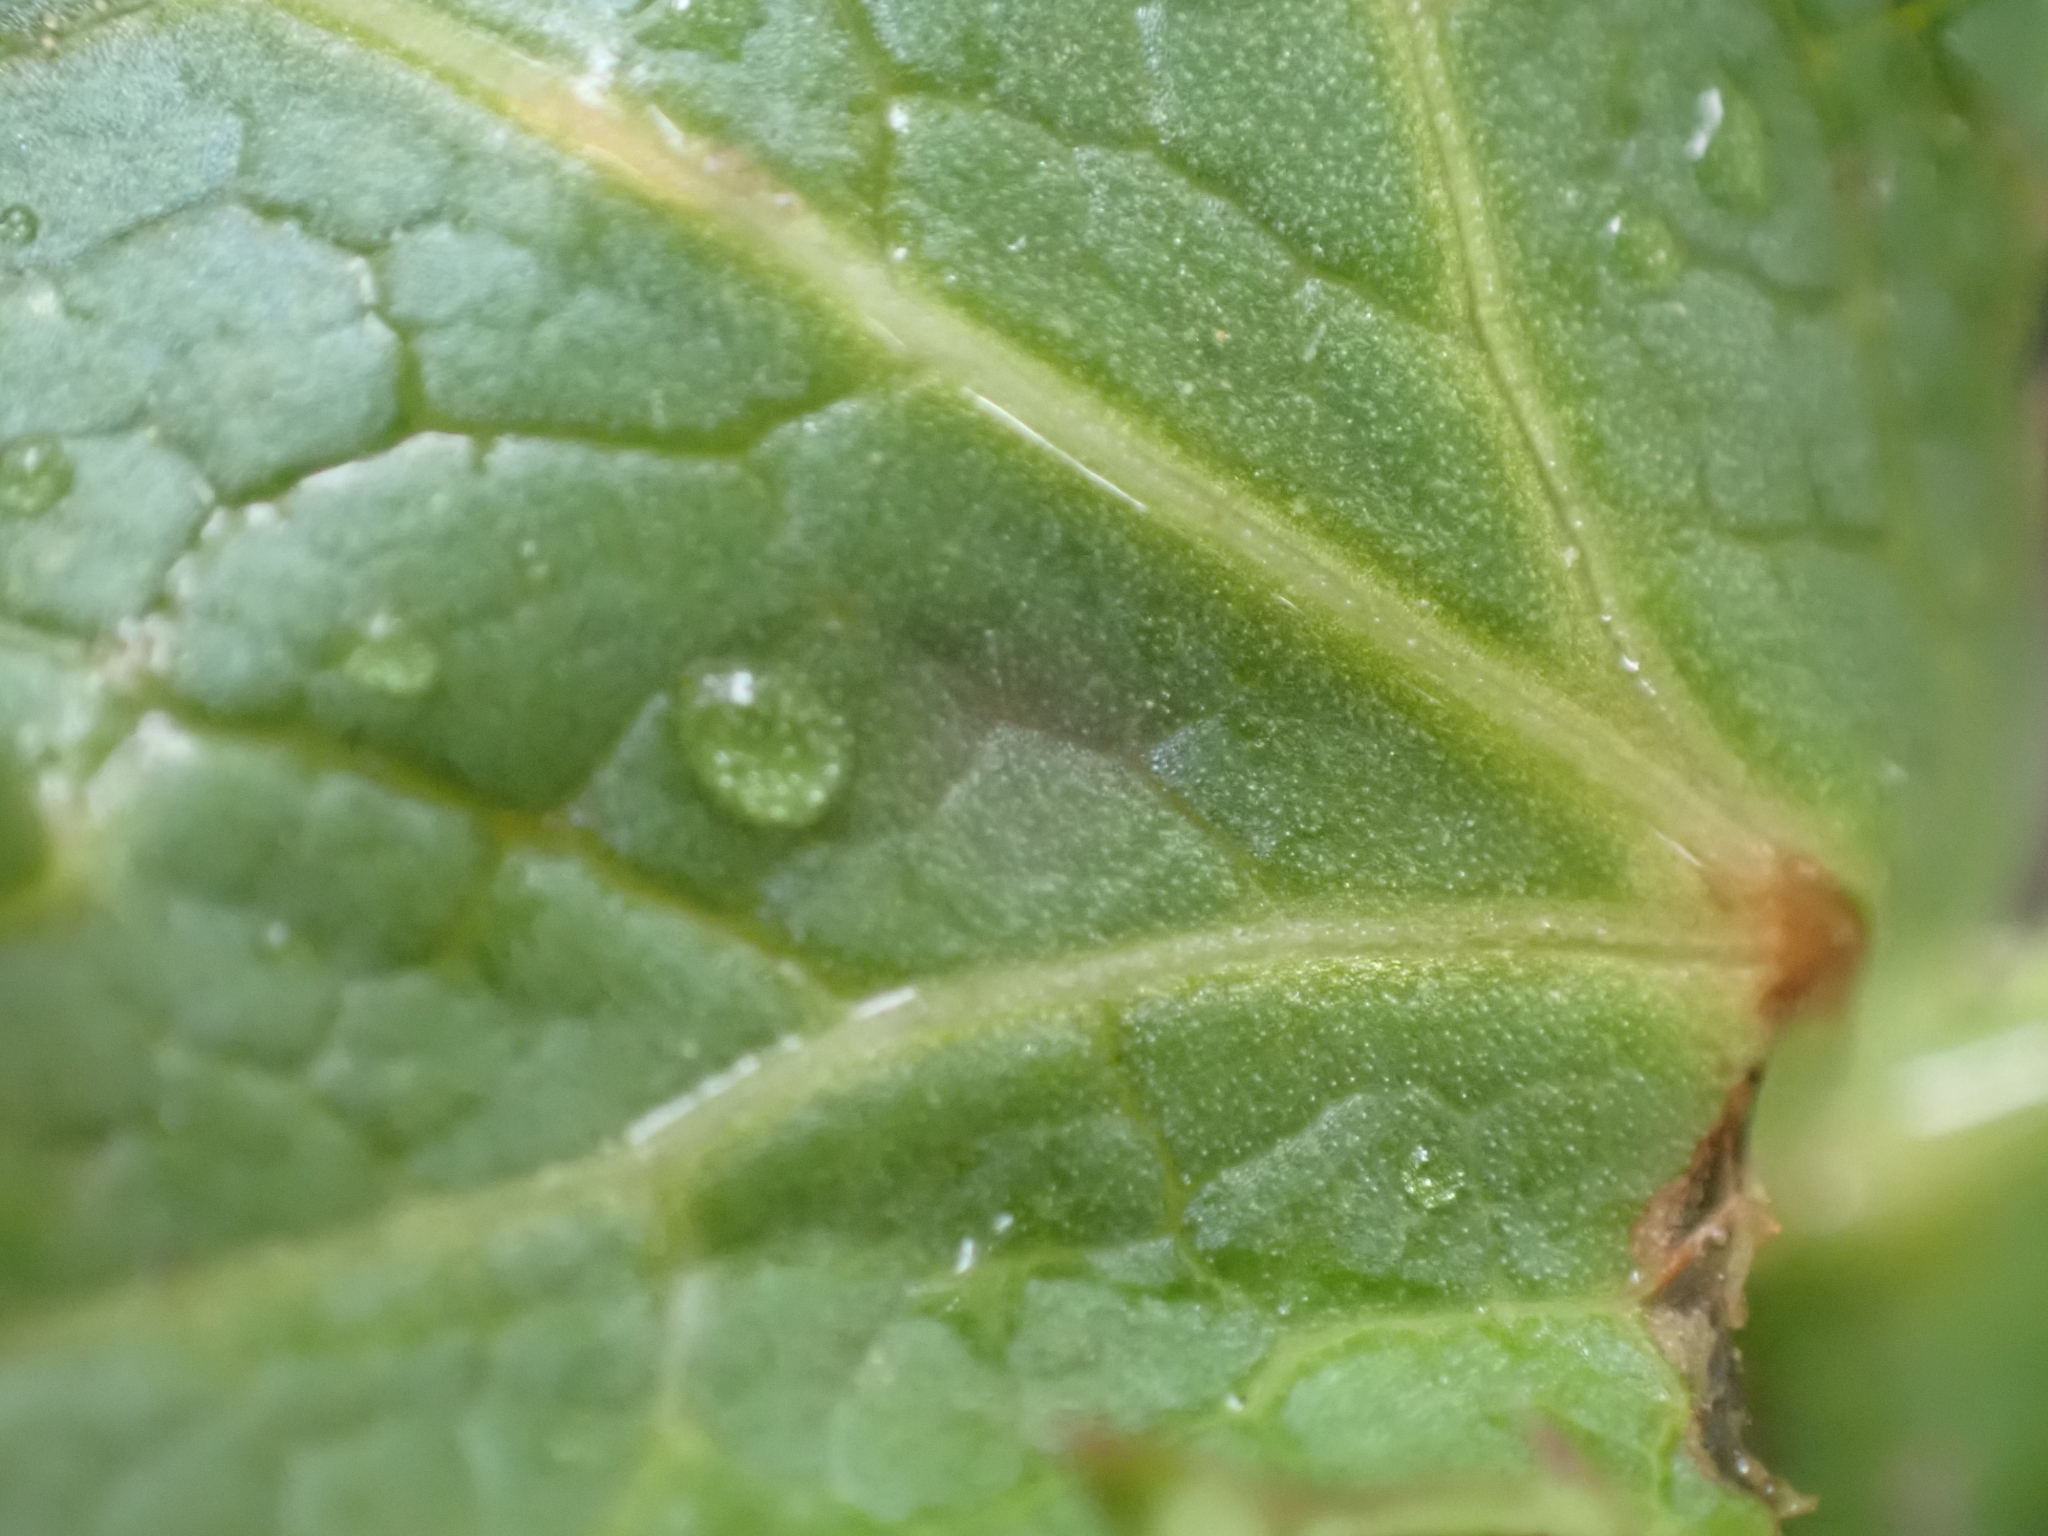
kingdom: Plantae
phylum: Tracheophyta
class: Magnoliopsida
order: Apiales
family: Apiaceae
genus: Sanicula
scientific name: Sanicula crassicaulis
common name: Western snakeroot
